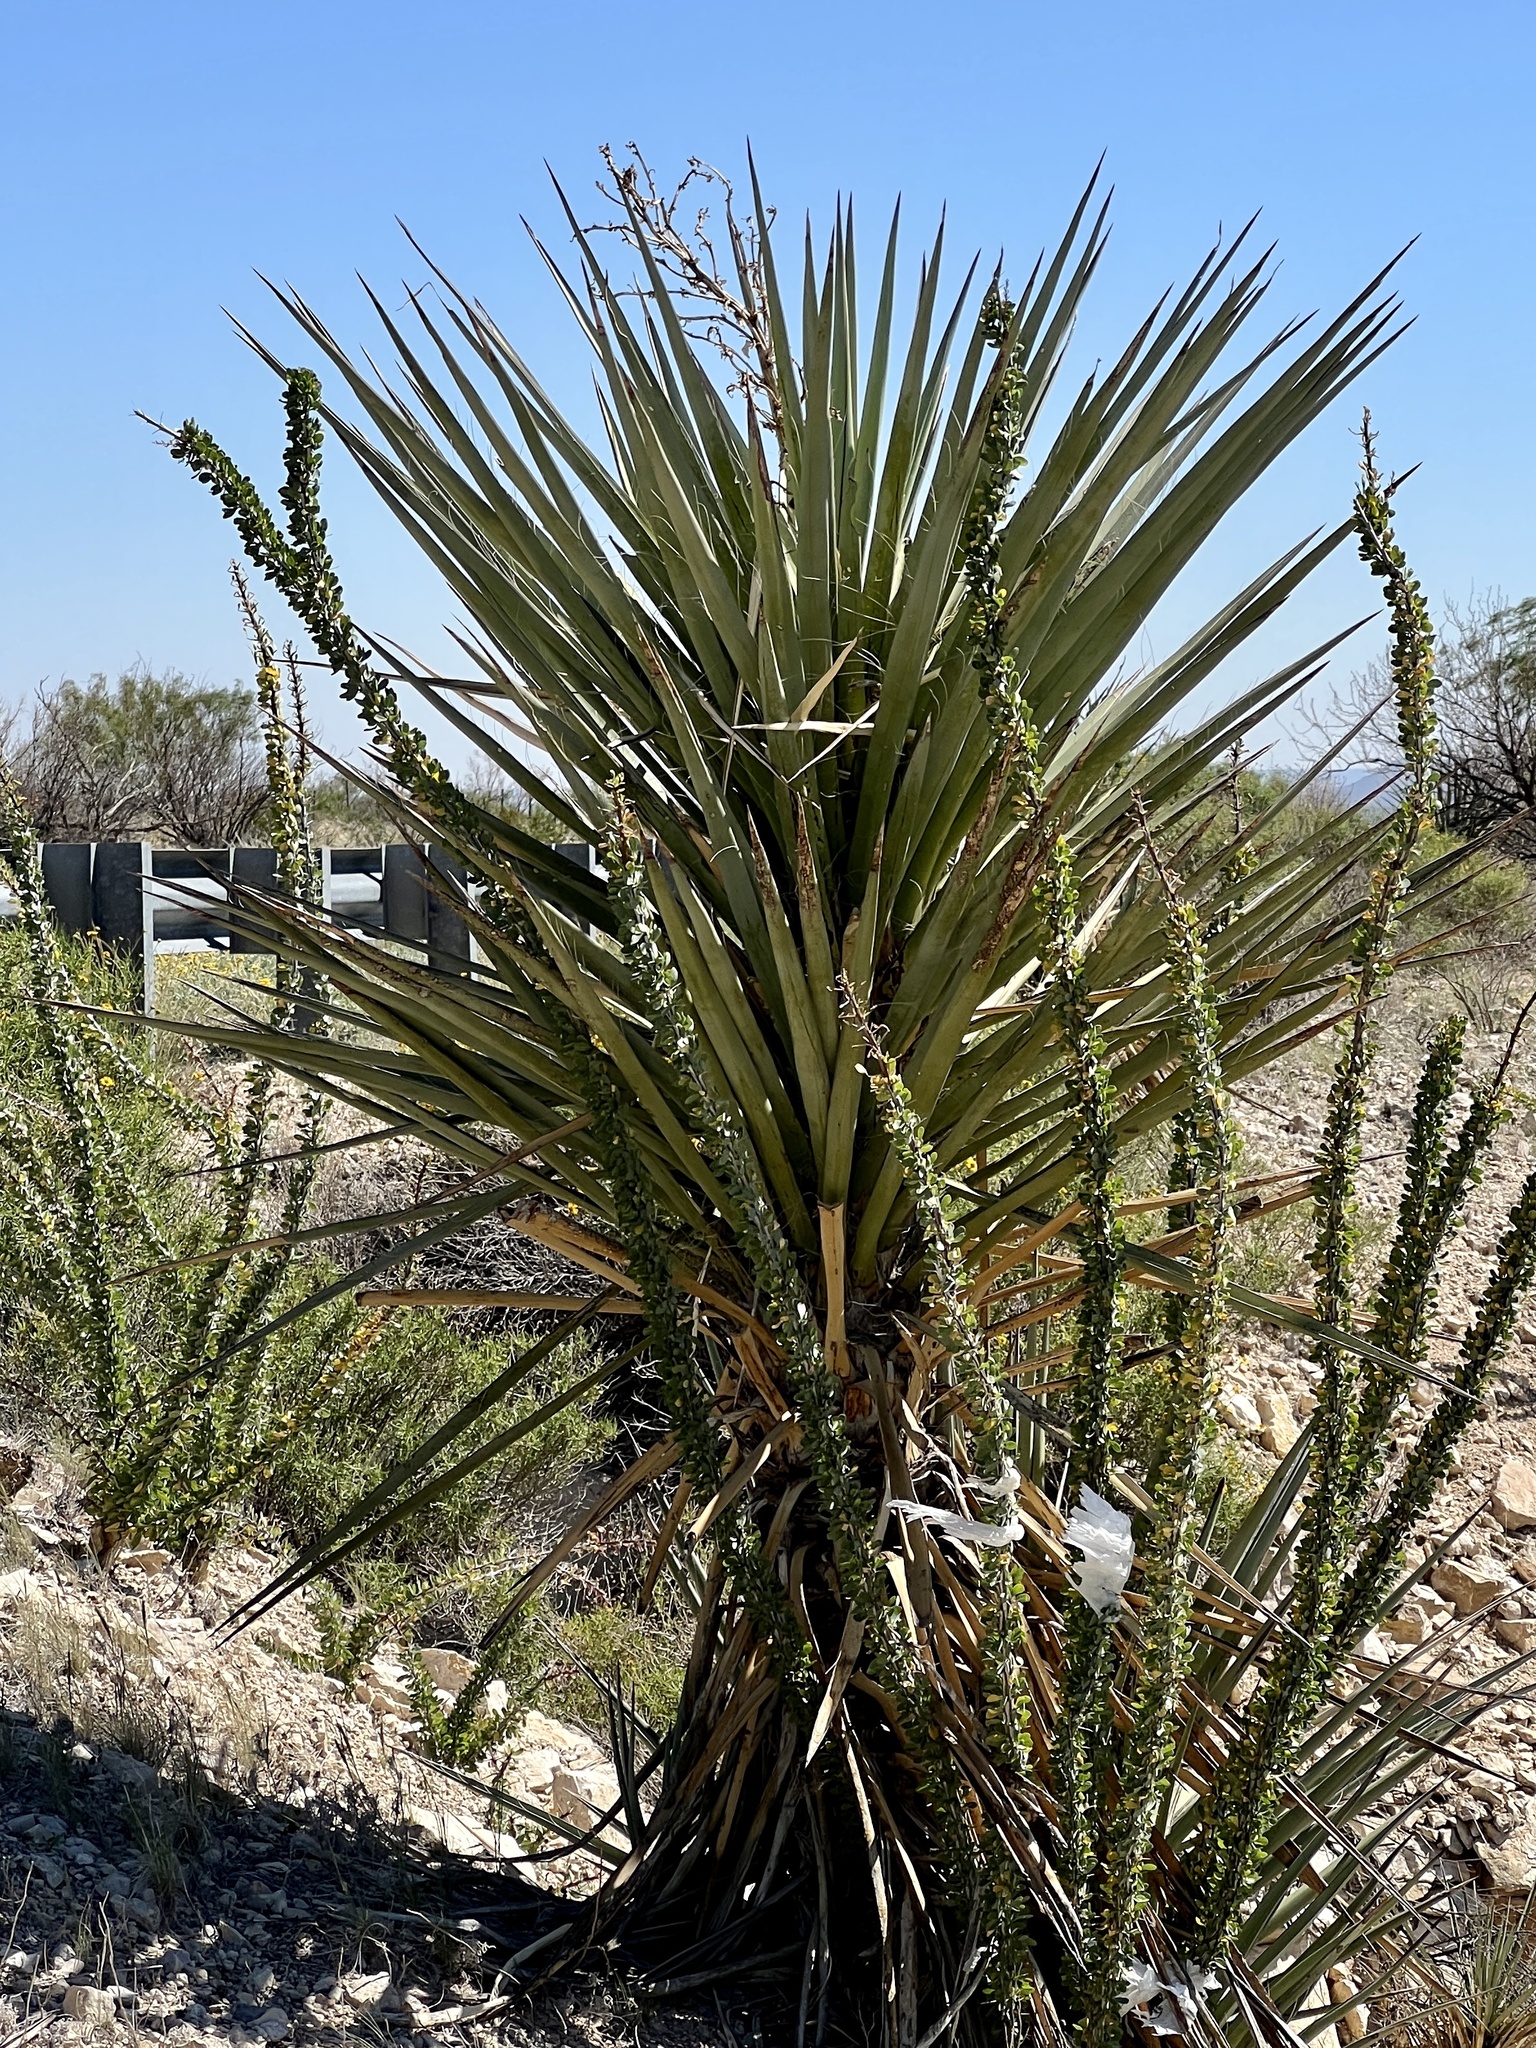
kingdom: Plantae
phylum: Tracheophyta
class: Liliopsida
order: Asparagales
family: Asparagaceae
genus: Yucca
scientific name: Yucca treculiana
